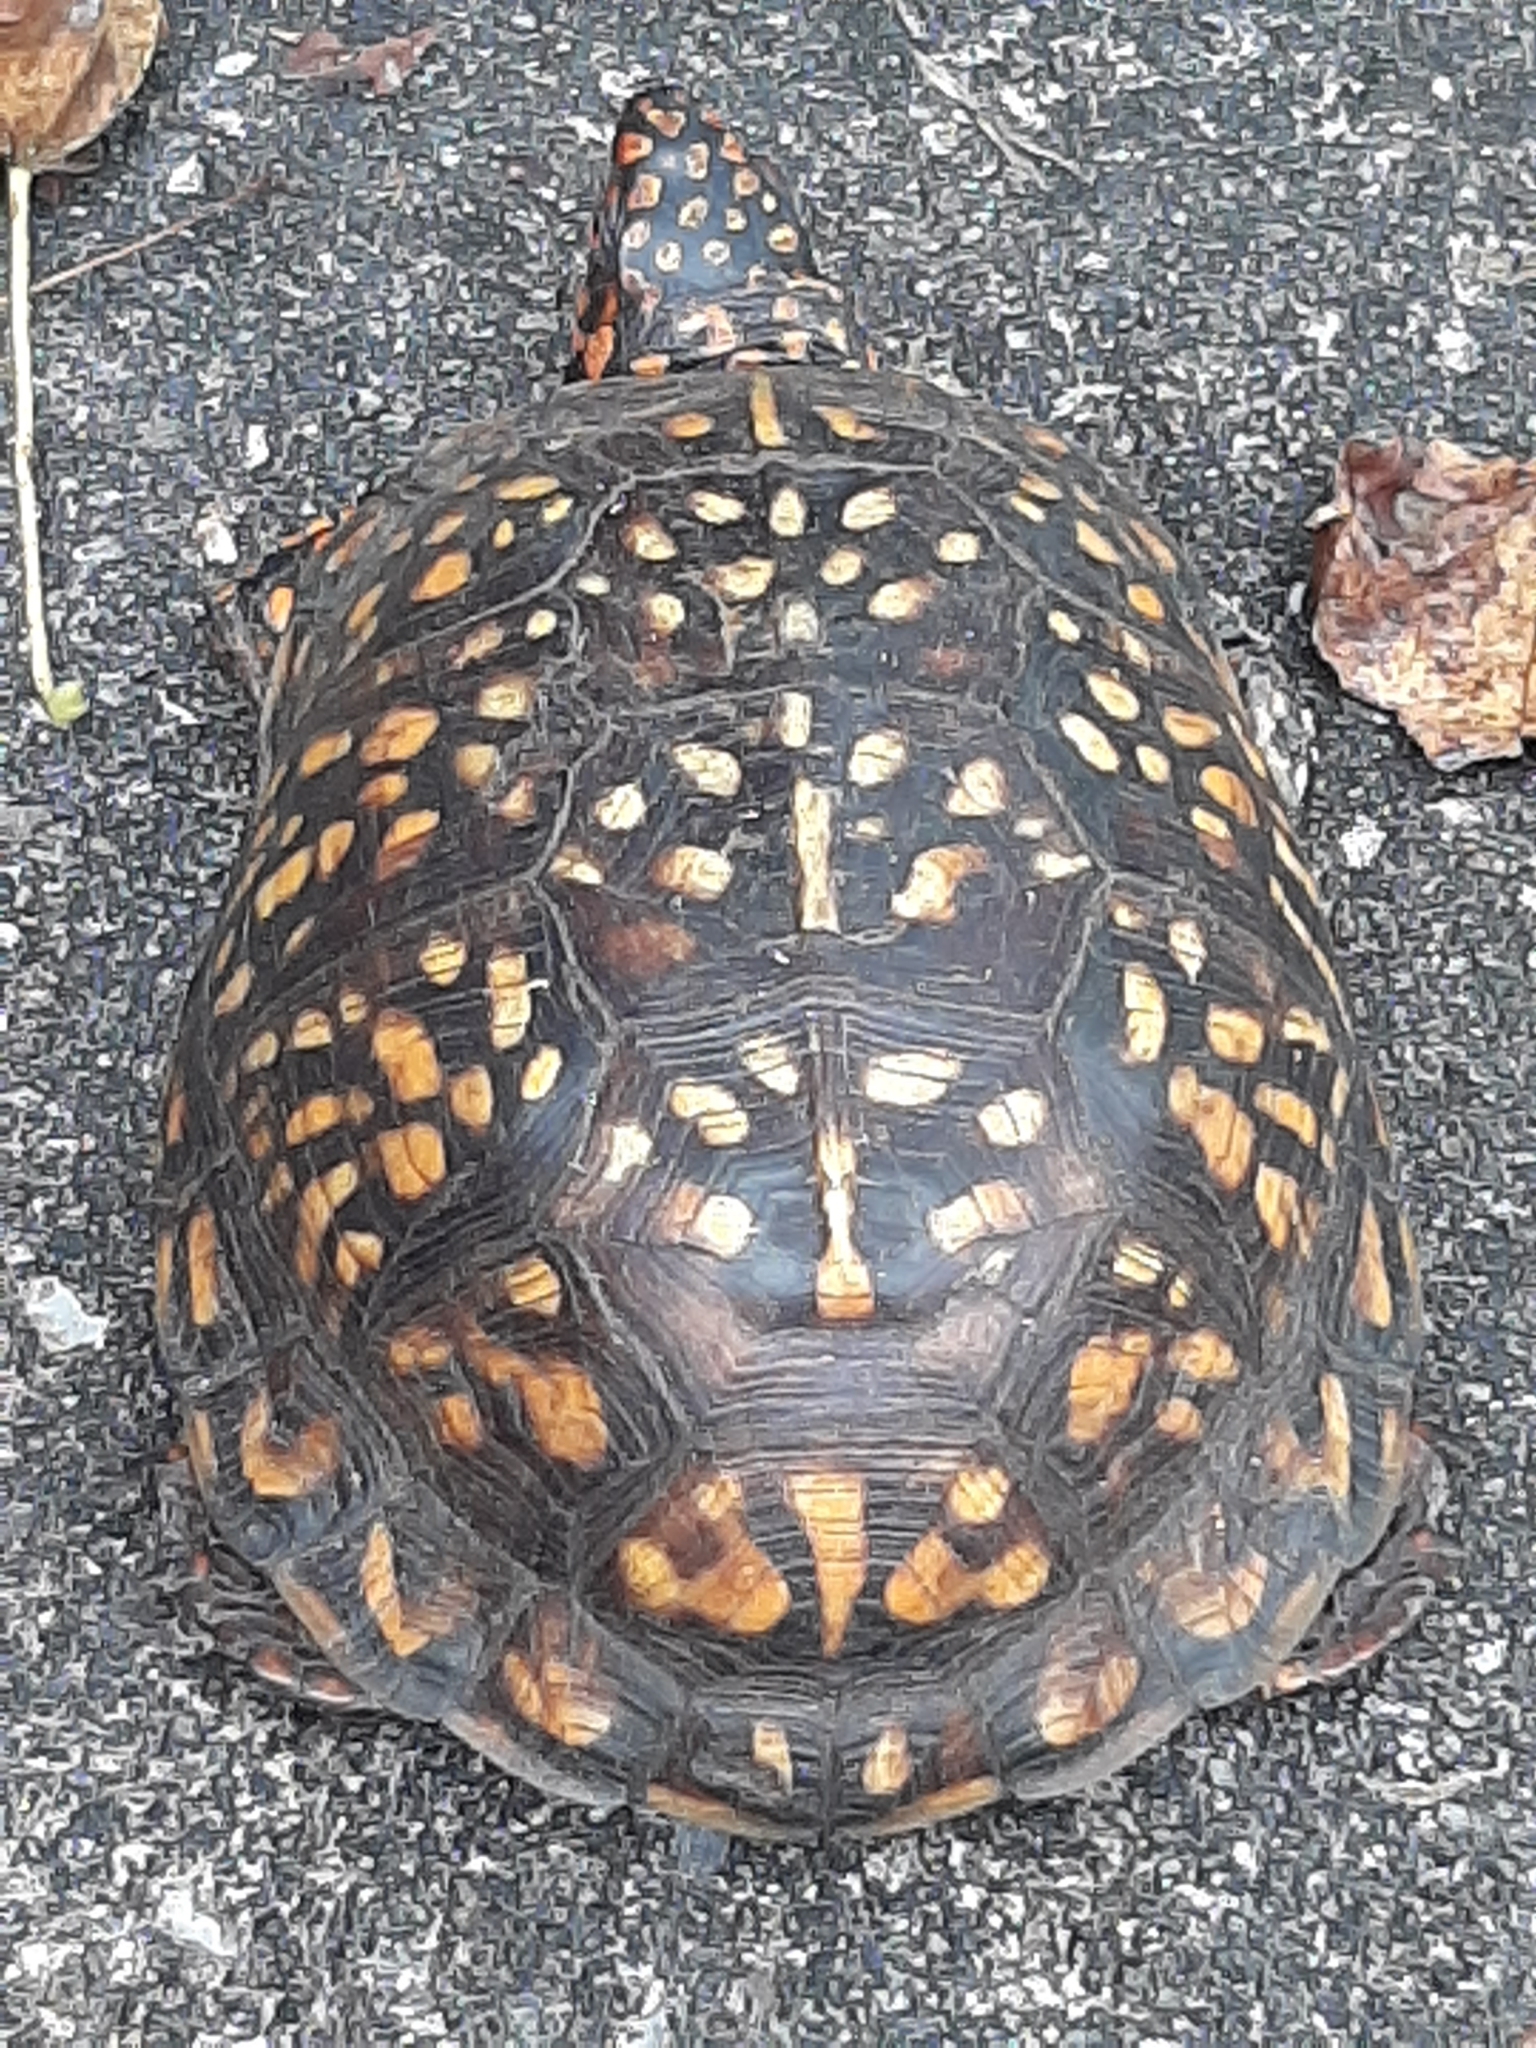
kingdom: Animalia
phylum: Chordata
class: Testudines
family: Emydidae
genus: Terrapene
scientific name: Terrapene carolina
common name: Common box turtle
